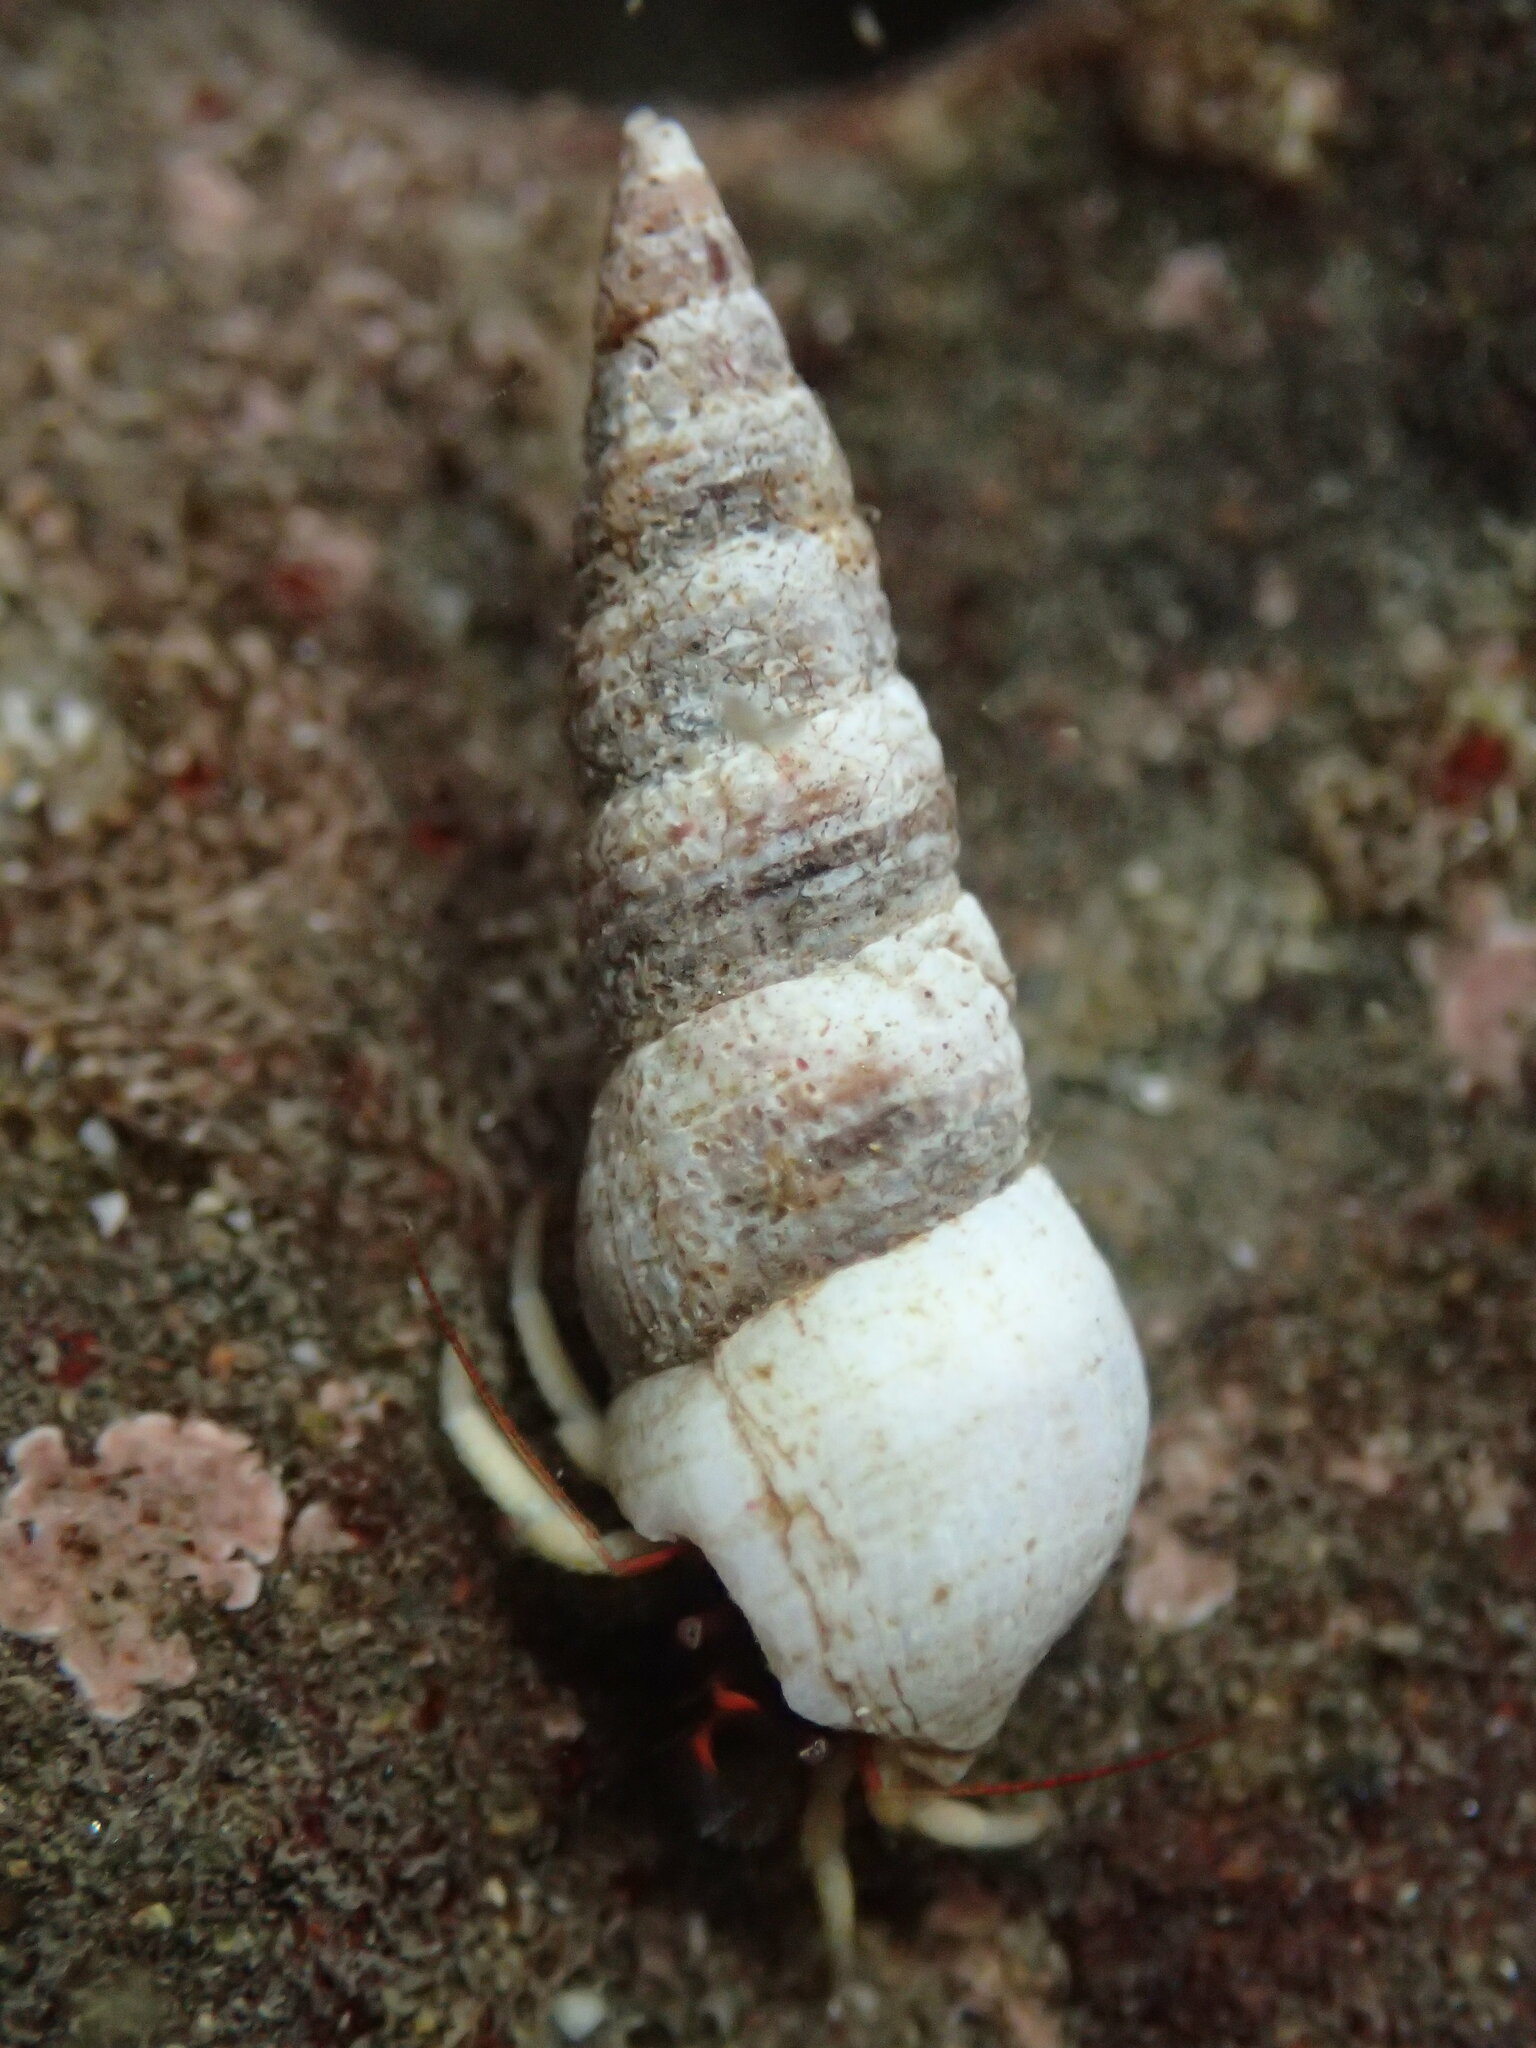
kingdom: Animalia
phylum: Mollusca
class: Gastropoda
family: Cerithiidae
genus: Neostylidium
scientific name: Neostylidium eschrichtii
